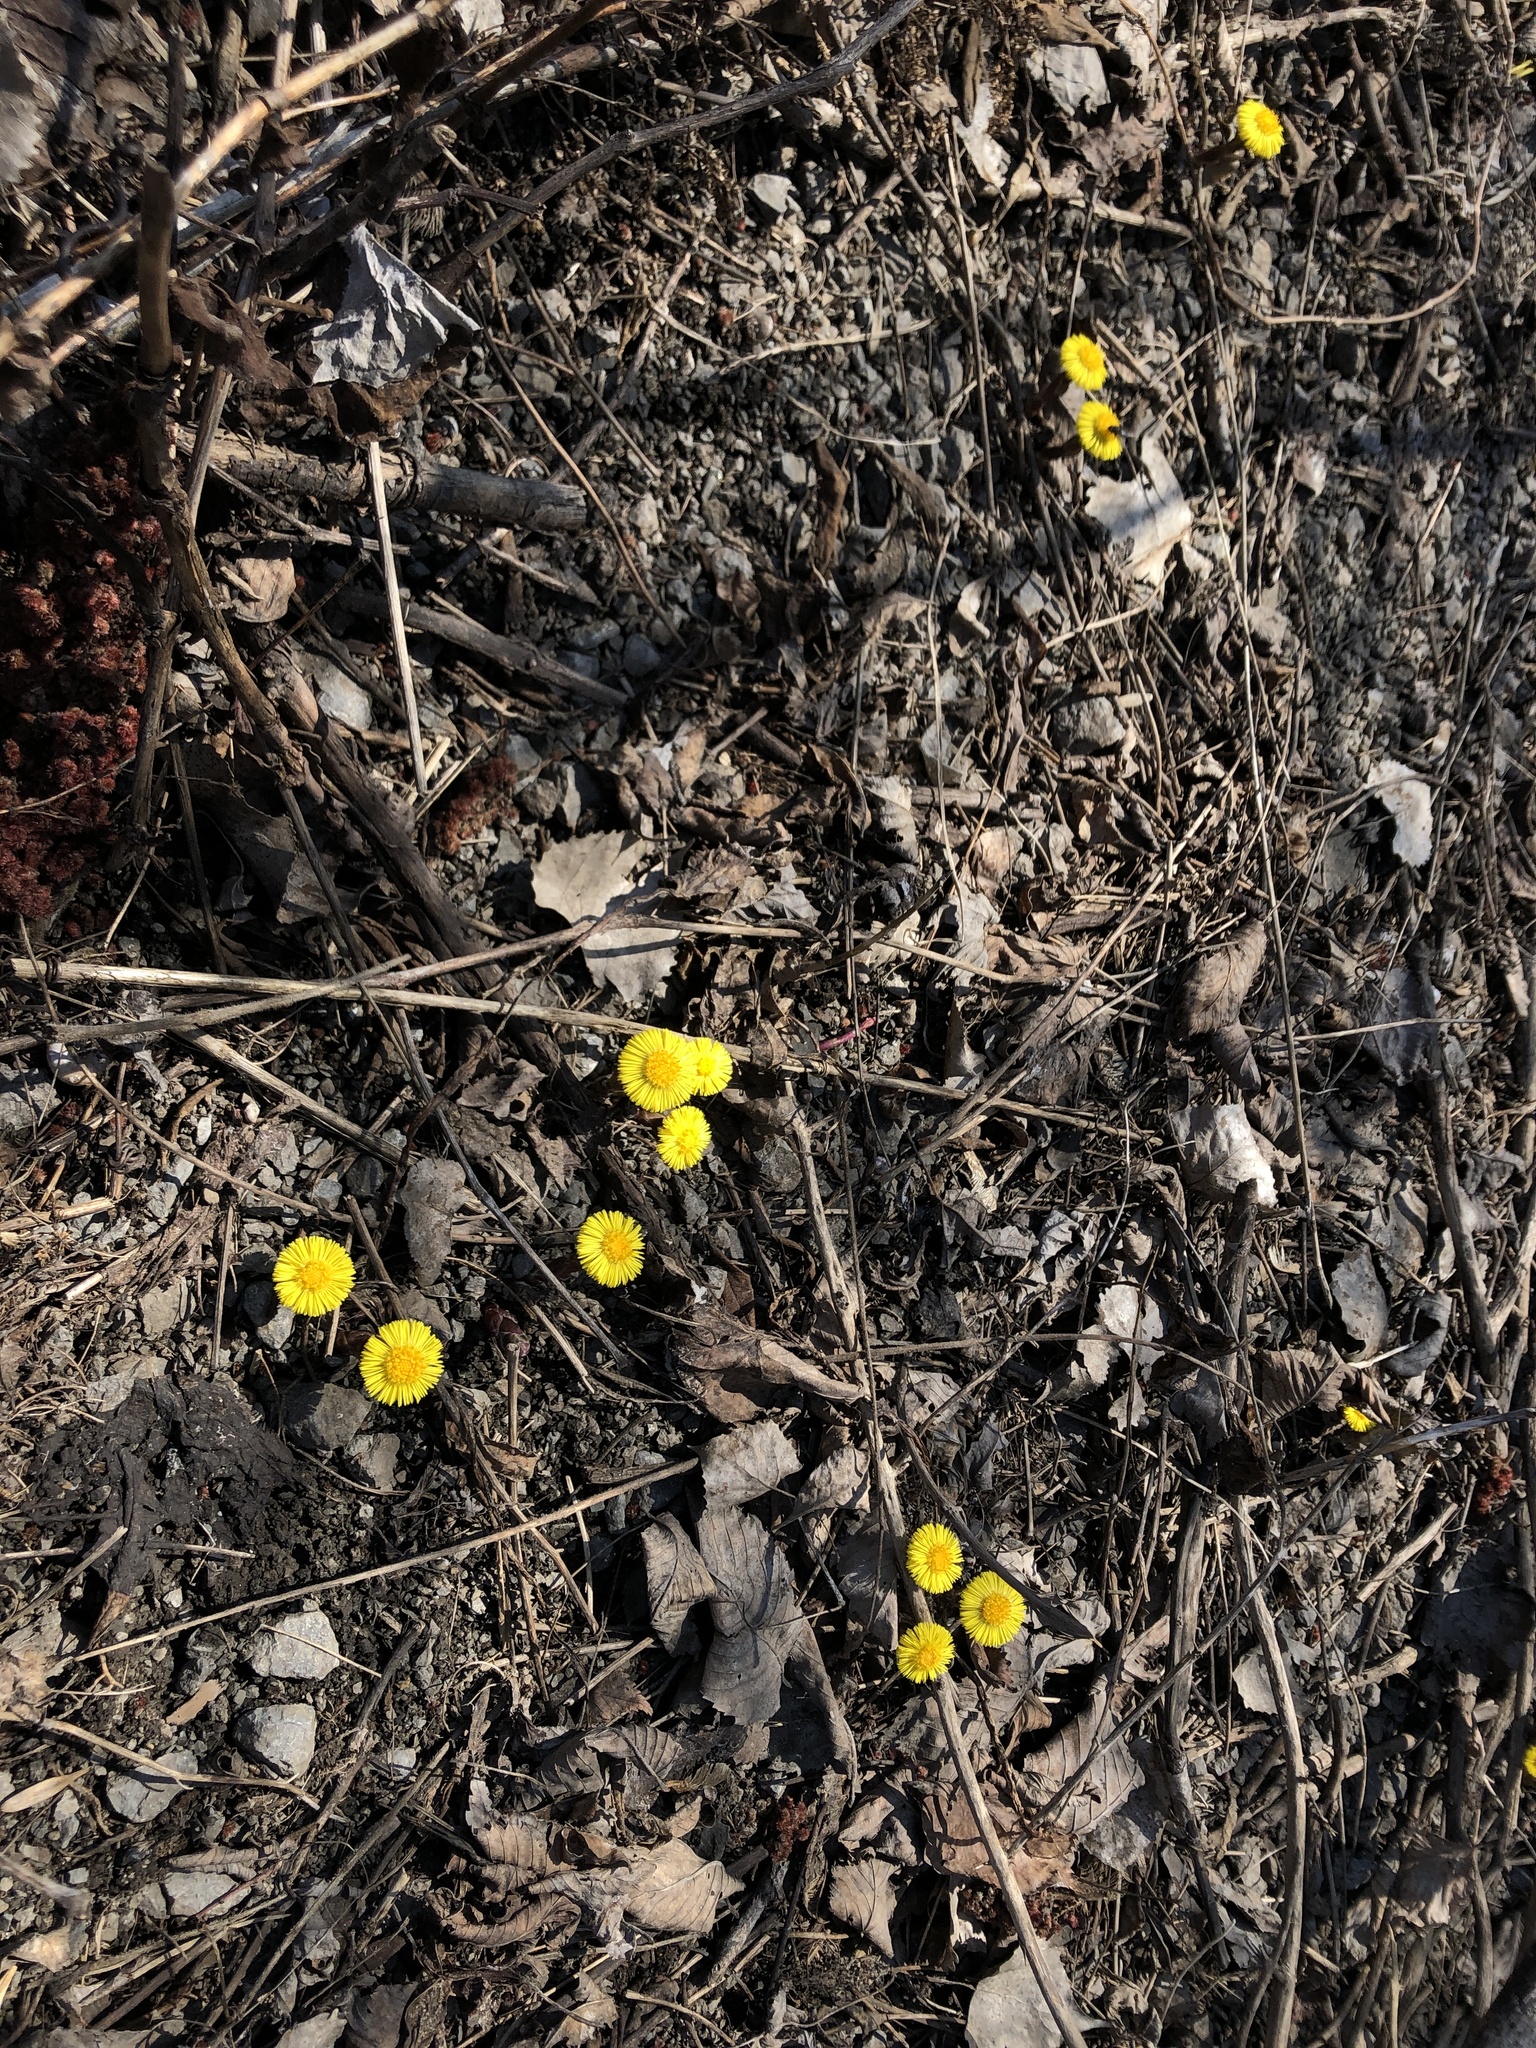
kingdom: Plantae
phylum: Tracheophyta
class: Magnoliopsida
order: Asterales
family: Asteraceae
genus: Tussilago
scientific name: Tussilago farfara
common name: Coltsfoot
